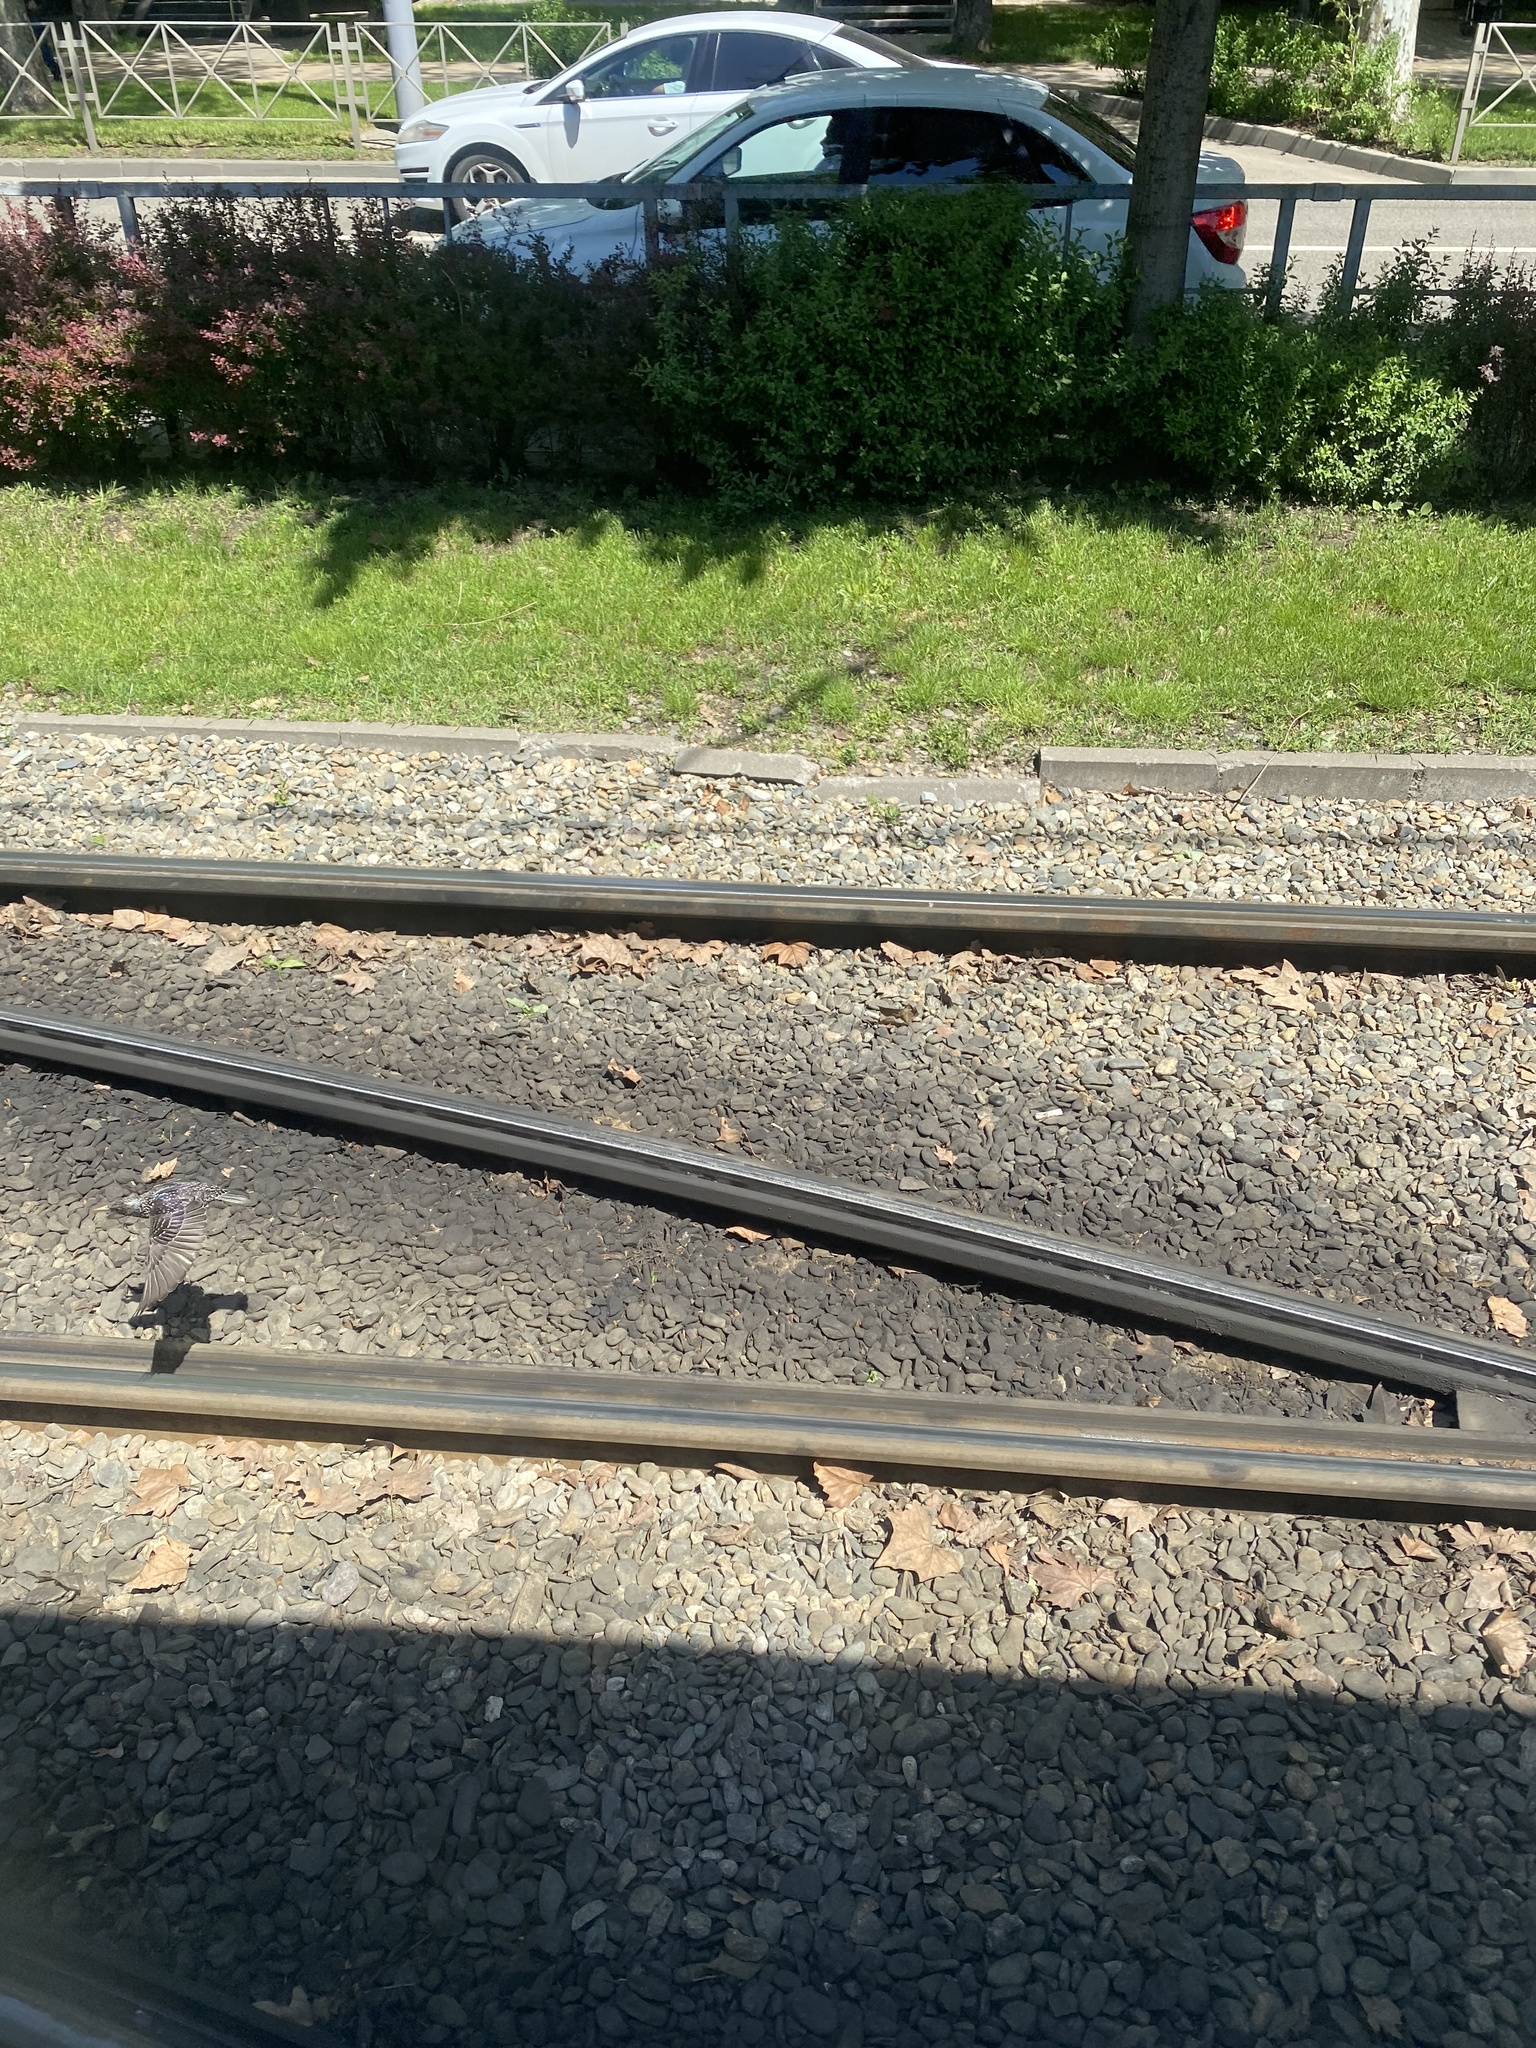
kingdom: Animalia
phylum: Chordata
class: Aves
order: Passeriformes
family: Sturnidae
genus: Sturnus
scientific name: Sturnus vulgaris
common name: Common starling
